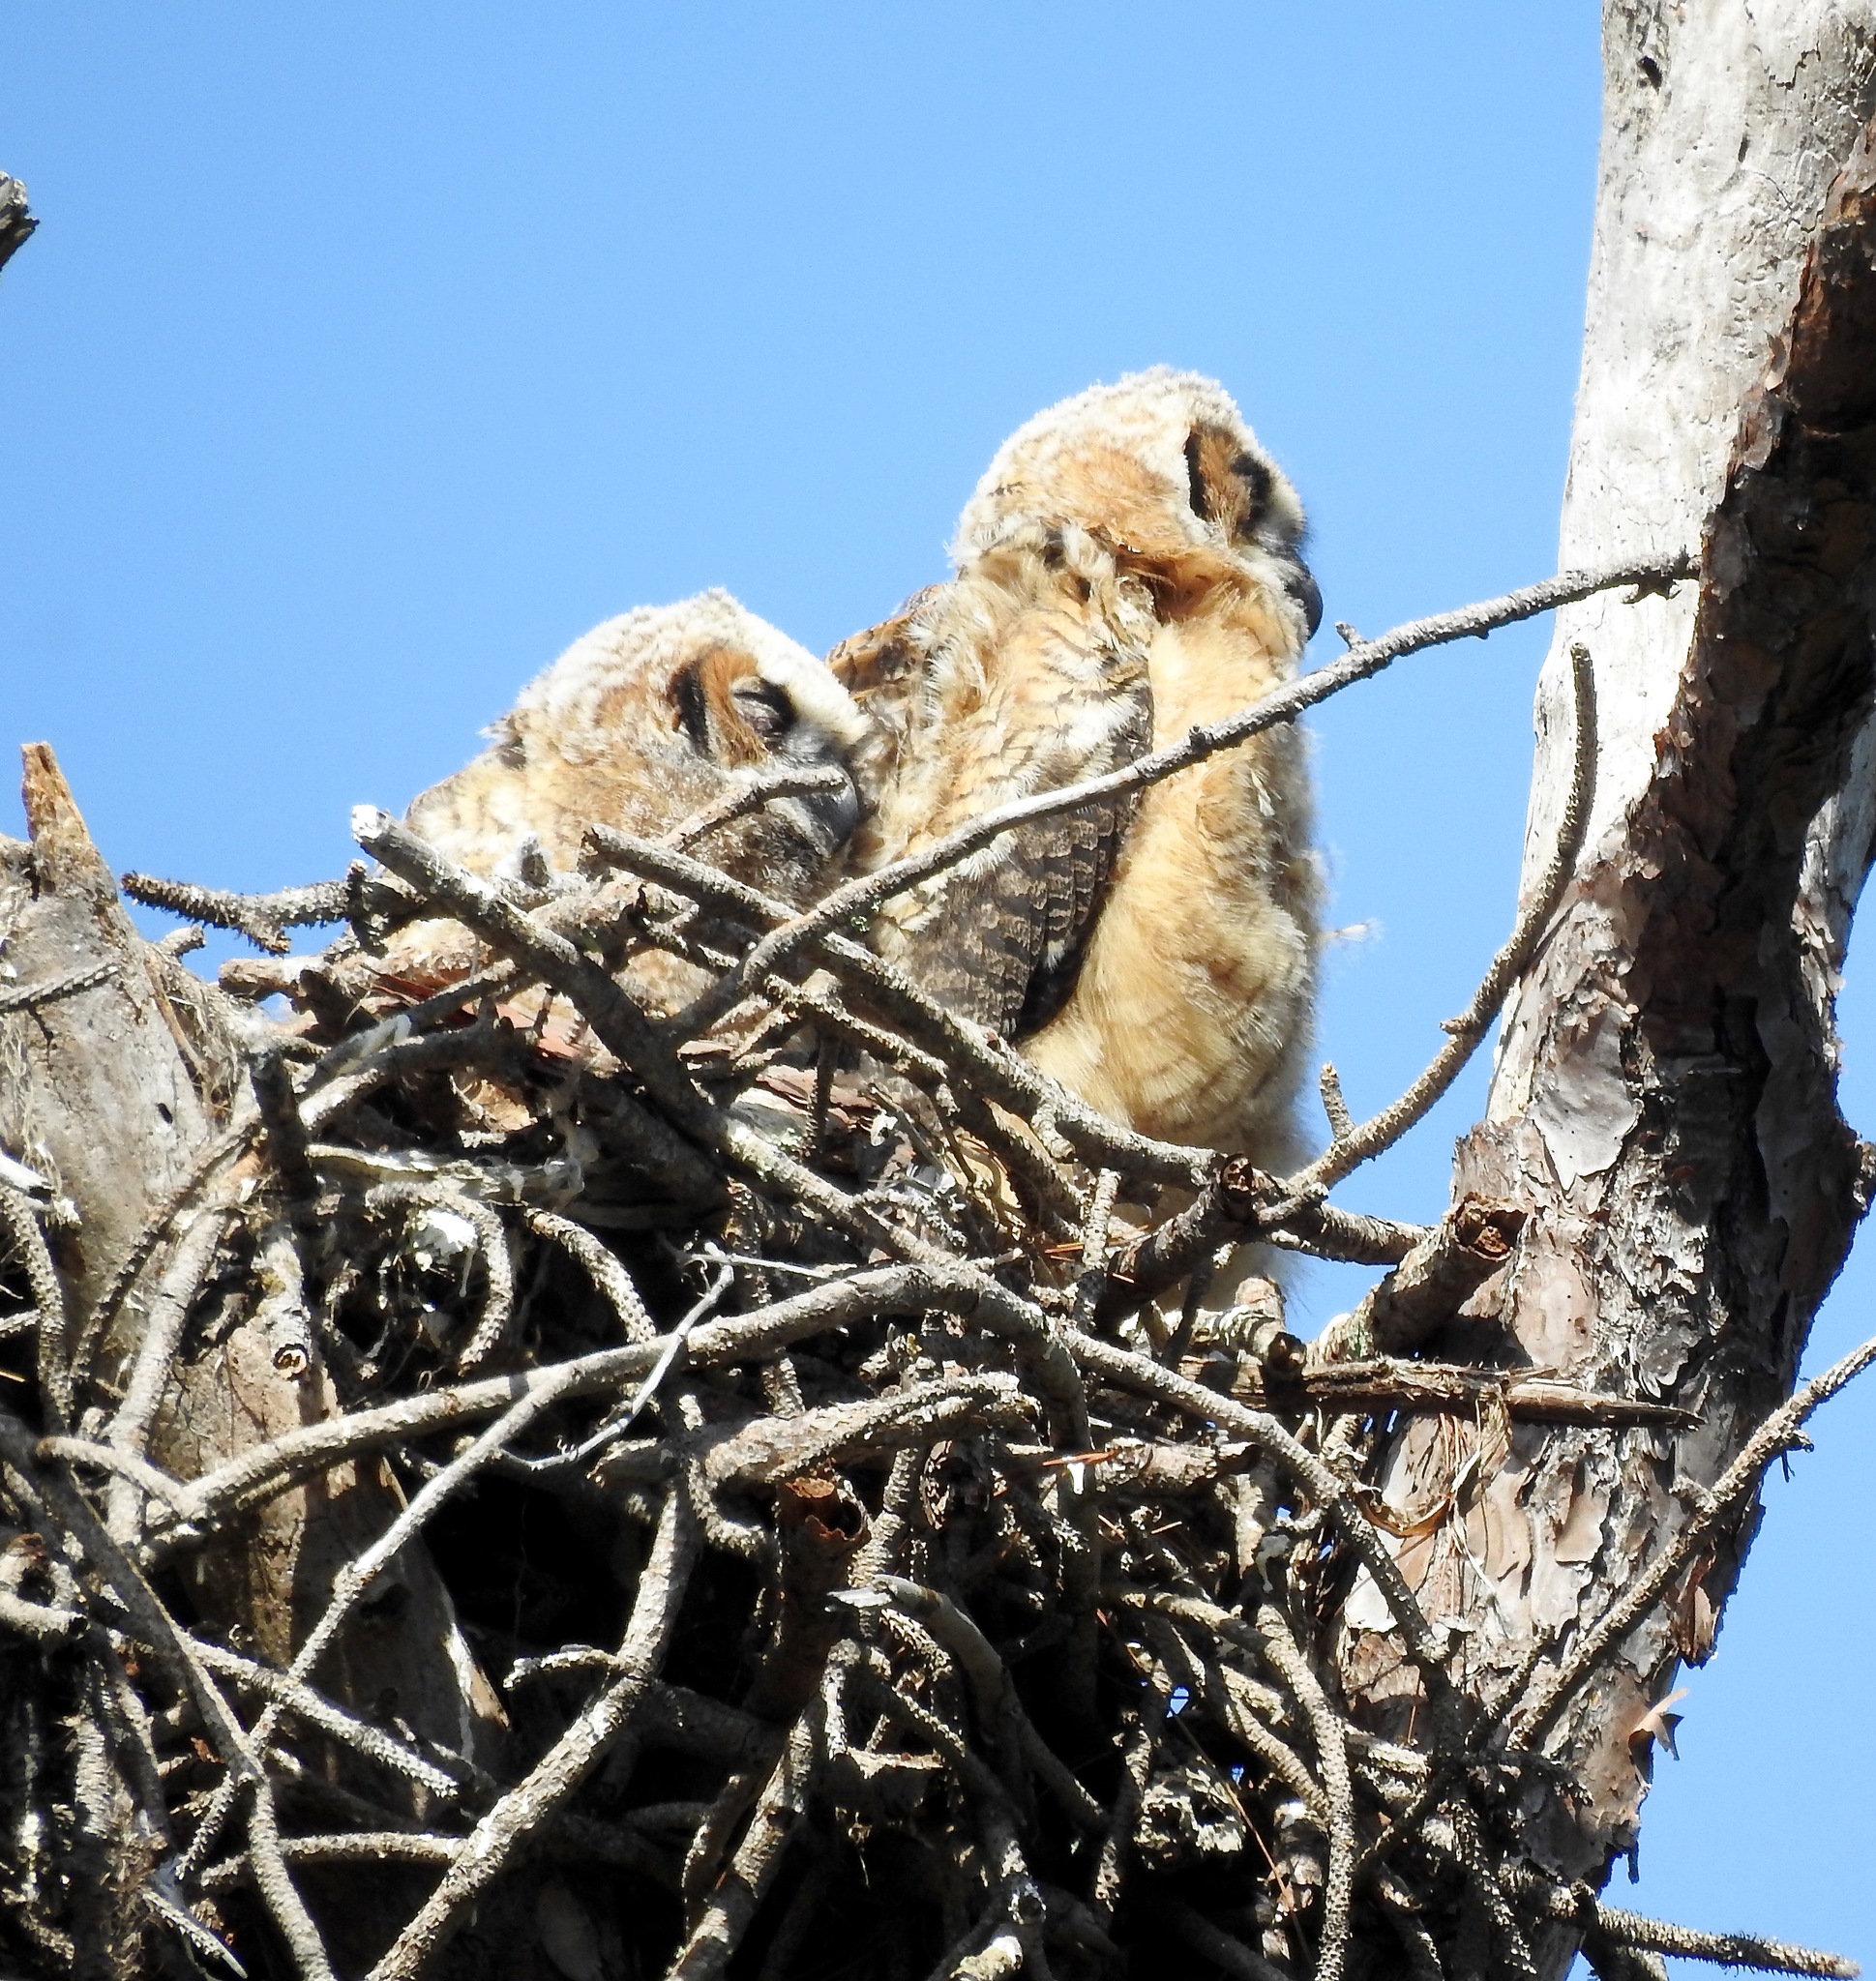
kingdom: Animalia
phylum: Chordata
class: Aves
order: Strigiformes
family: Strigidae
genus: Bubo
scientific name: Bubo virginianus
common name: Great horned owl
